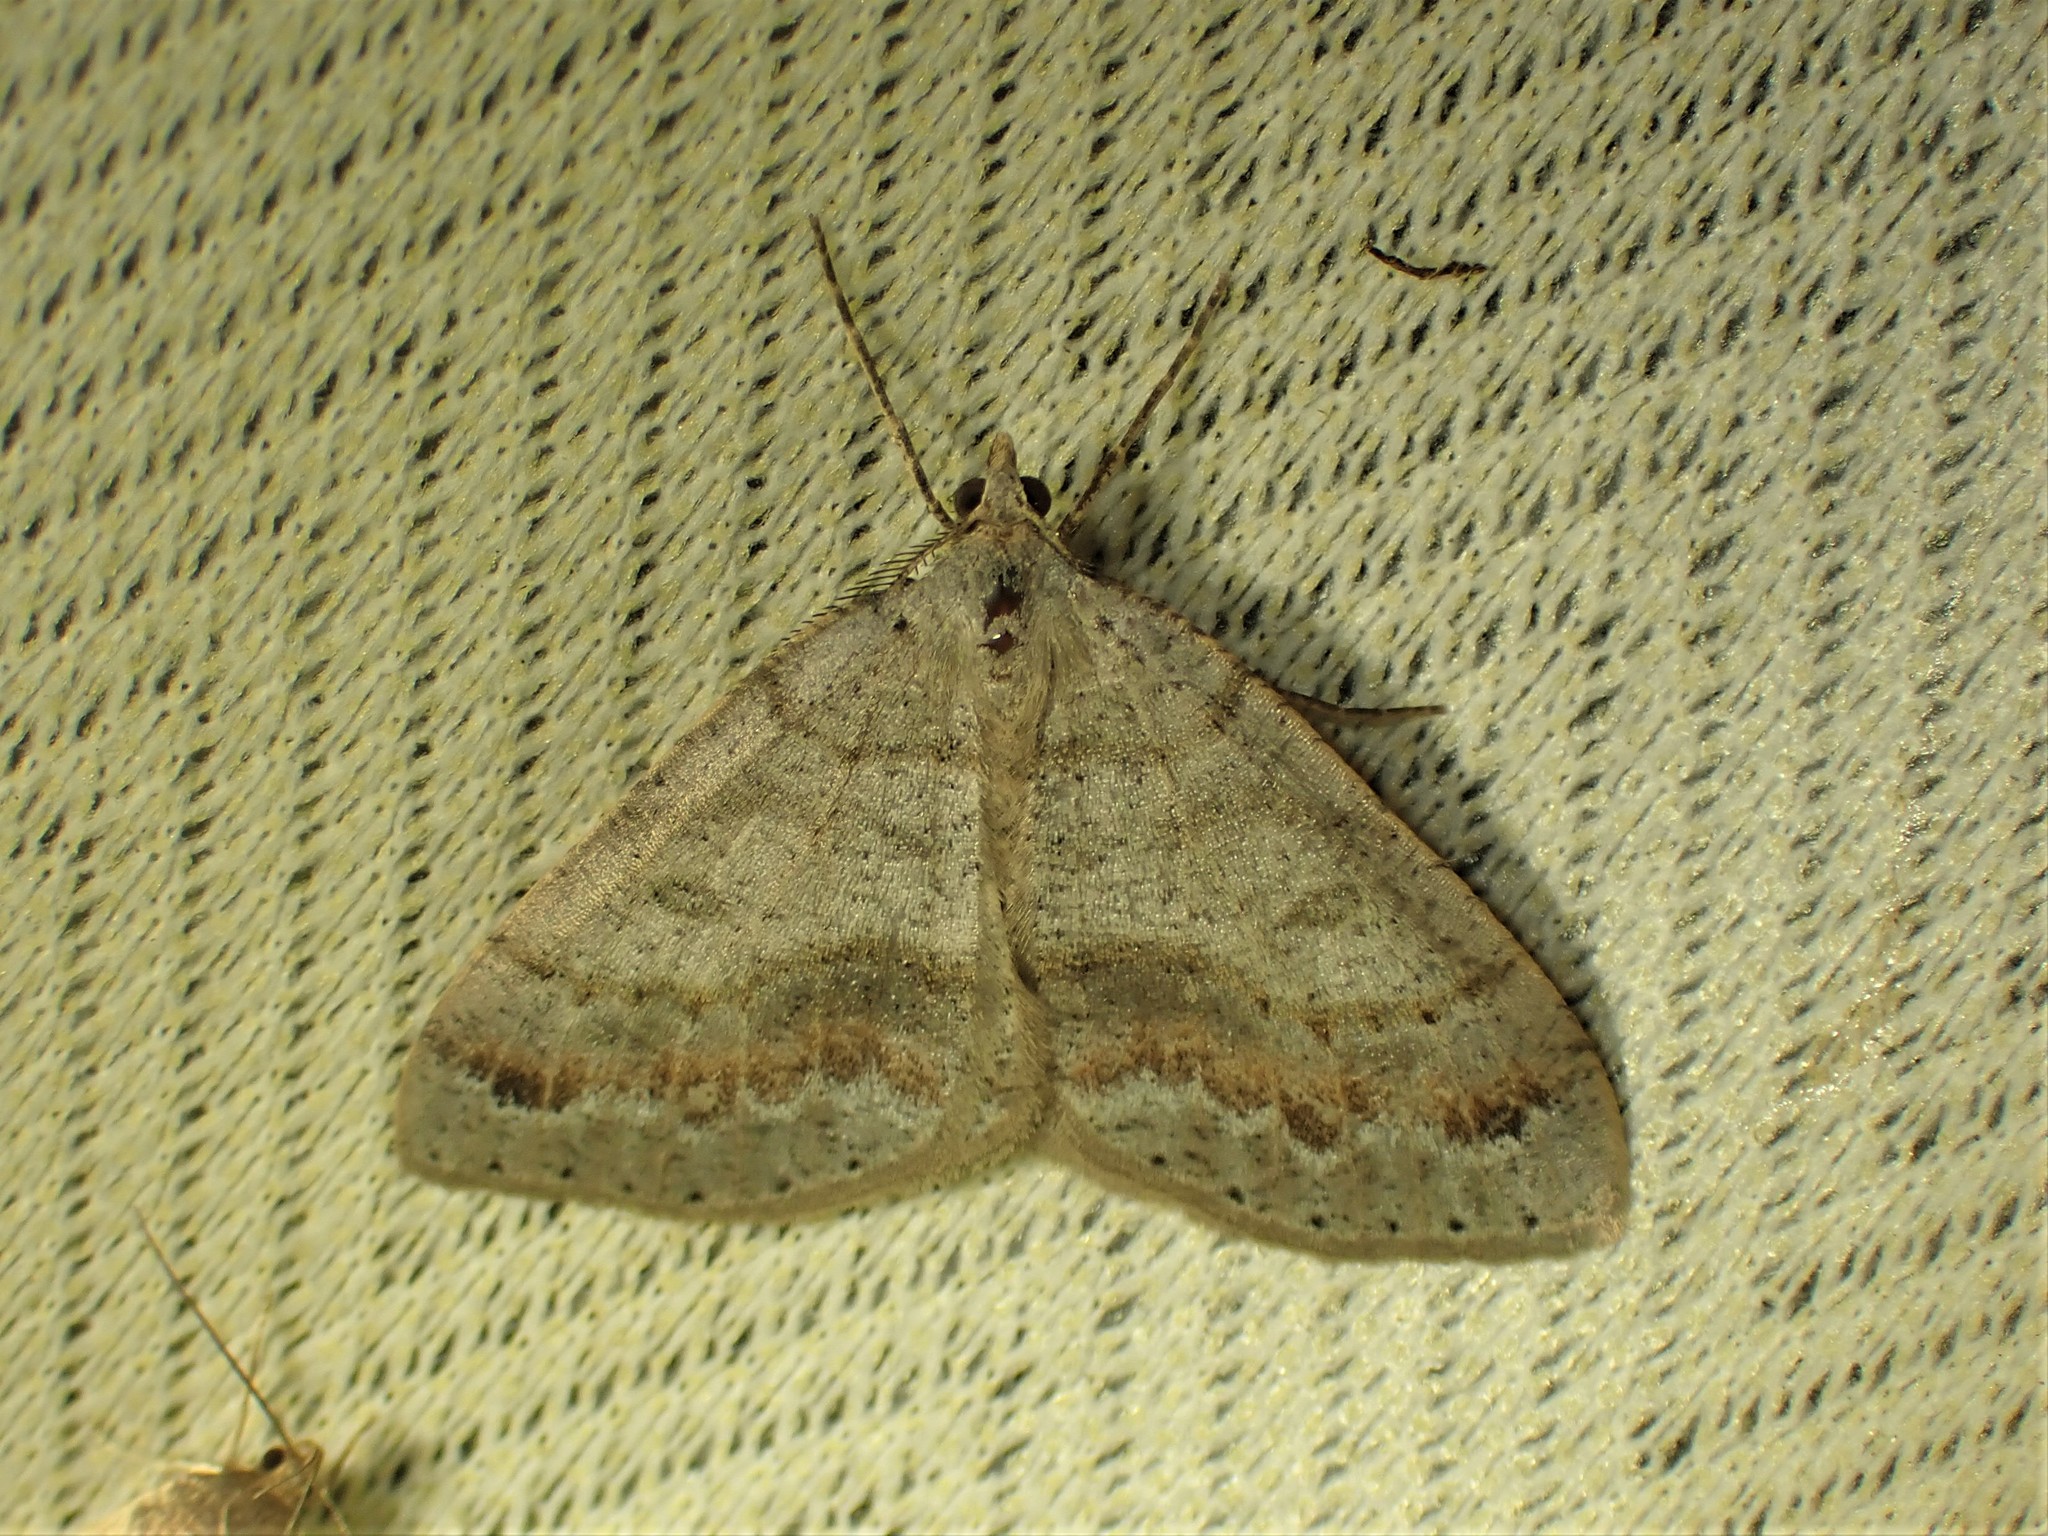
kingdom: Animalia
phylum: Arthropoda
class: Insecta
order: Lepidoptera
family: Geometridae
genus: Macaria
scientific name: Macaria loricaria
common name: False bruce spanworm
